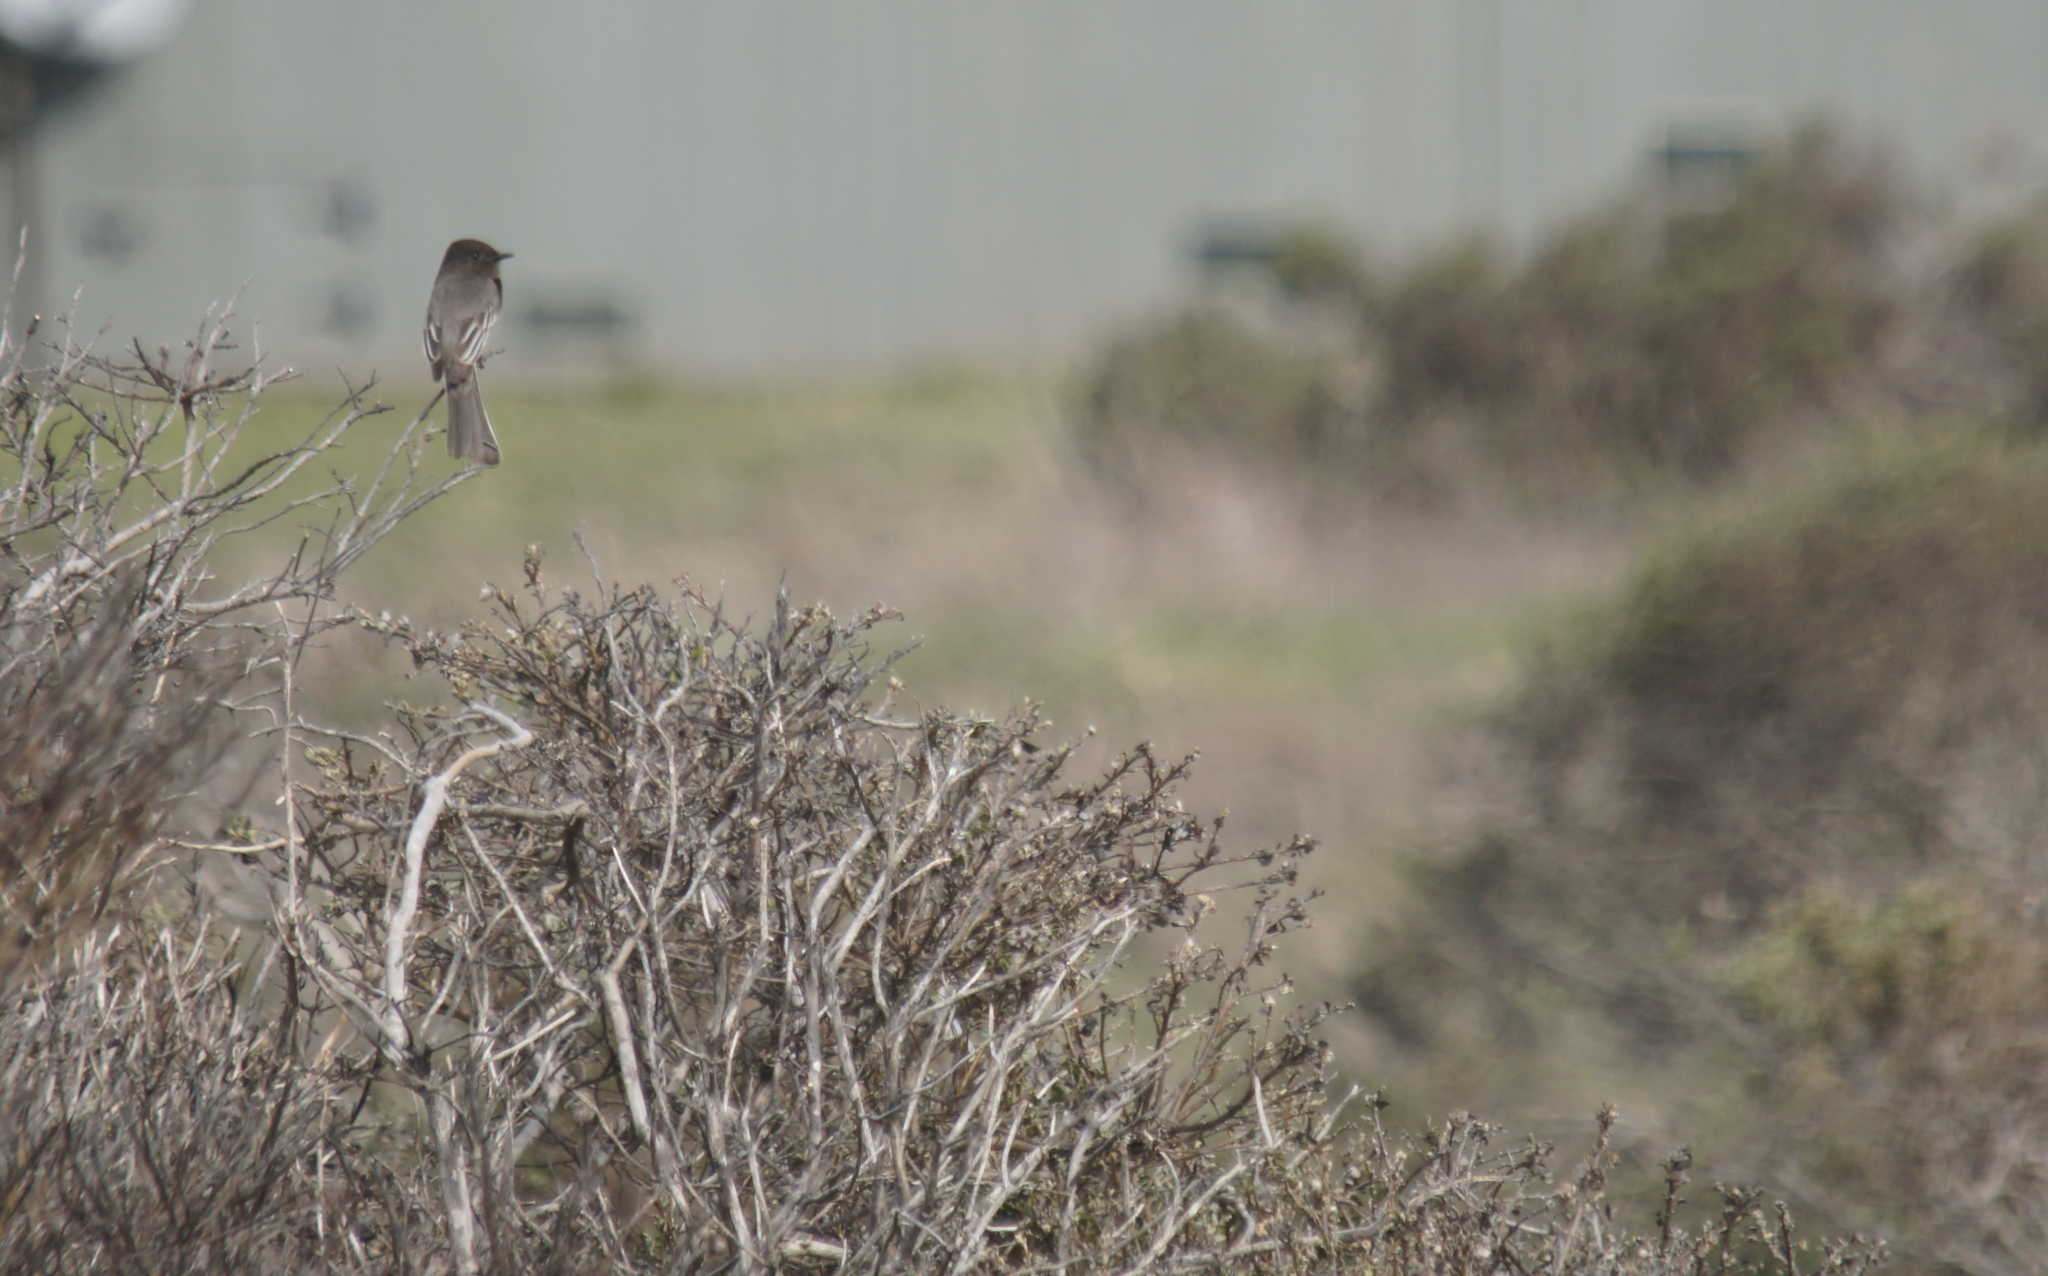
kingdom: Animalia
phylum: Chordata
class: Aves
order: Passeriformes
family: Tyrannidae
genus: Sayornis
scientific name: Sayornis nigricans
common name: Black phoebe
